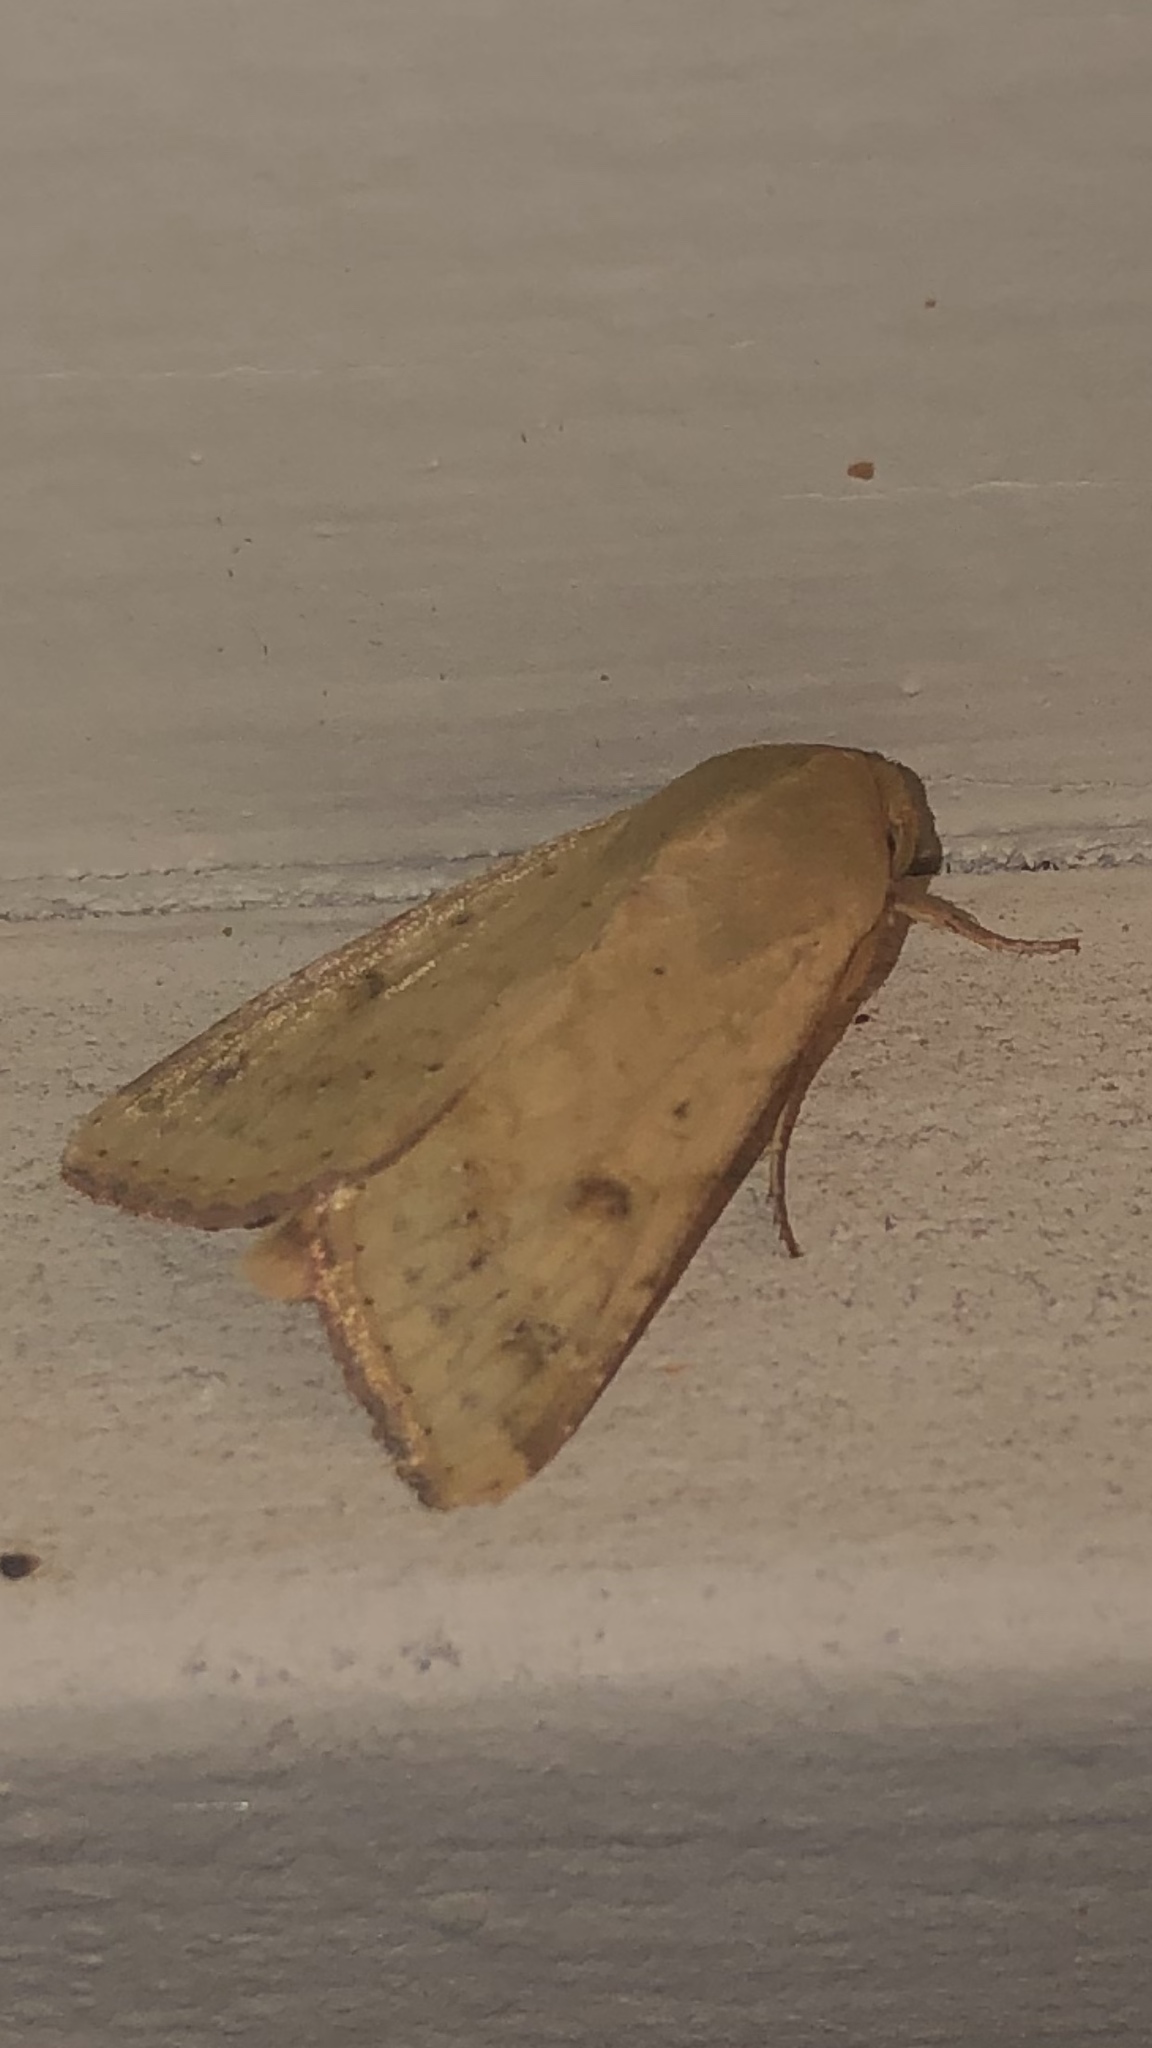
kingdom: Animalia
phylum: Arthropoda
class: Insecta
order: Lepidoptera
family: Noctuidae
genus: Helicoverpa
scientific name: Helicoverpa zea
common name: Bollworm
